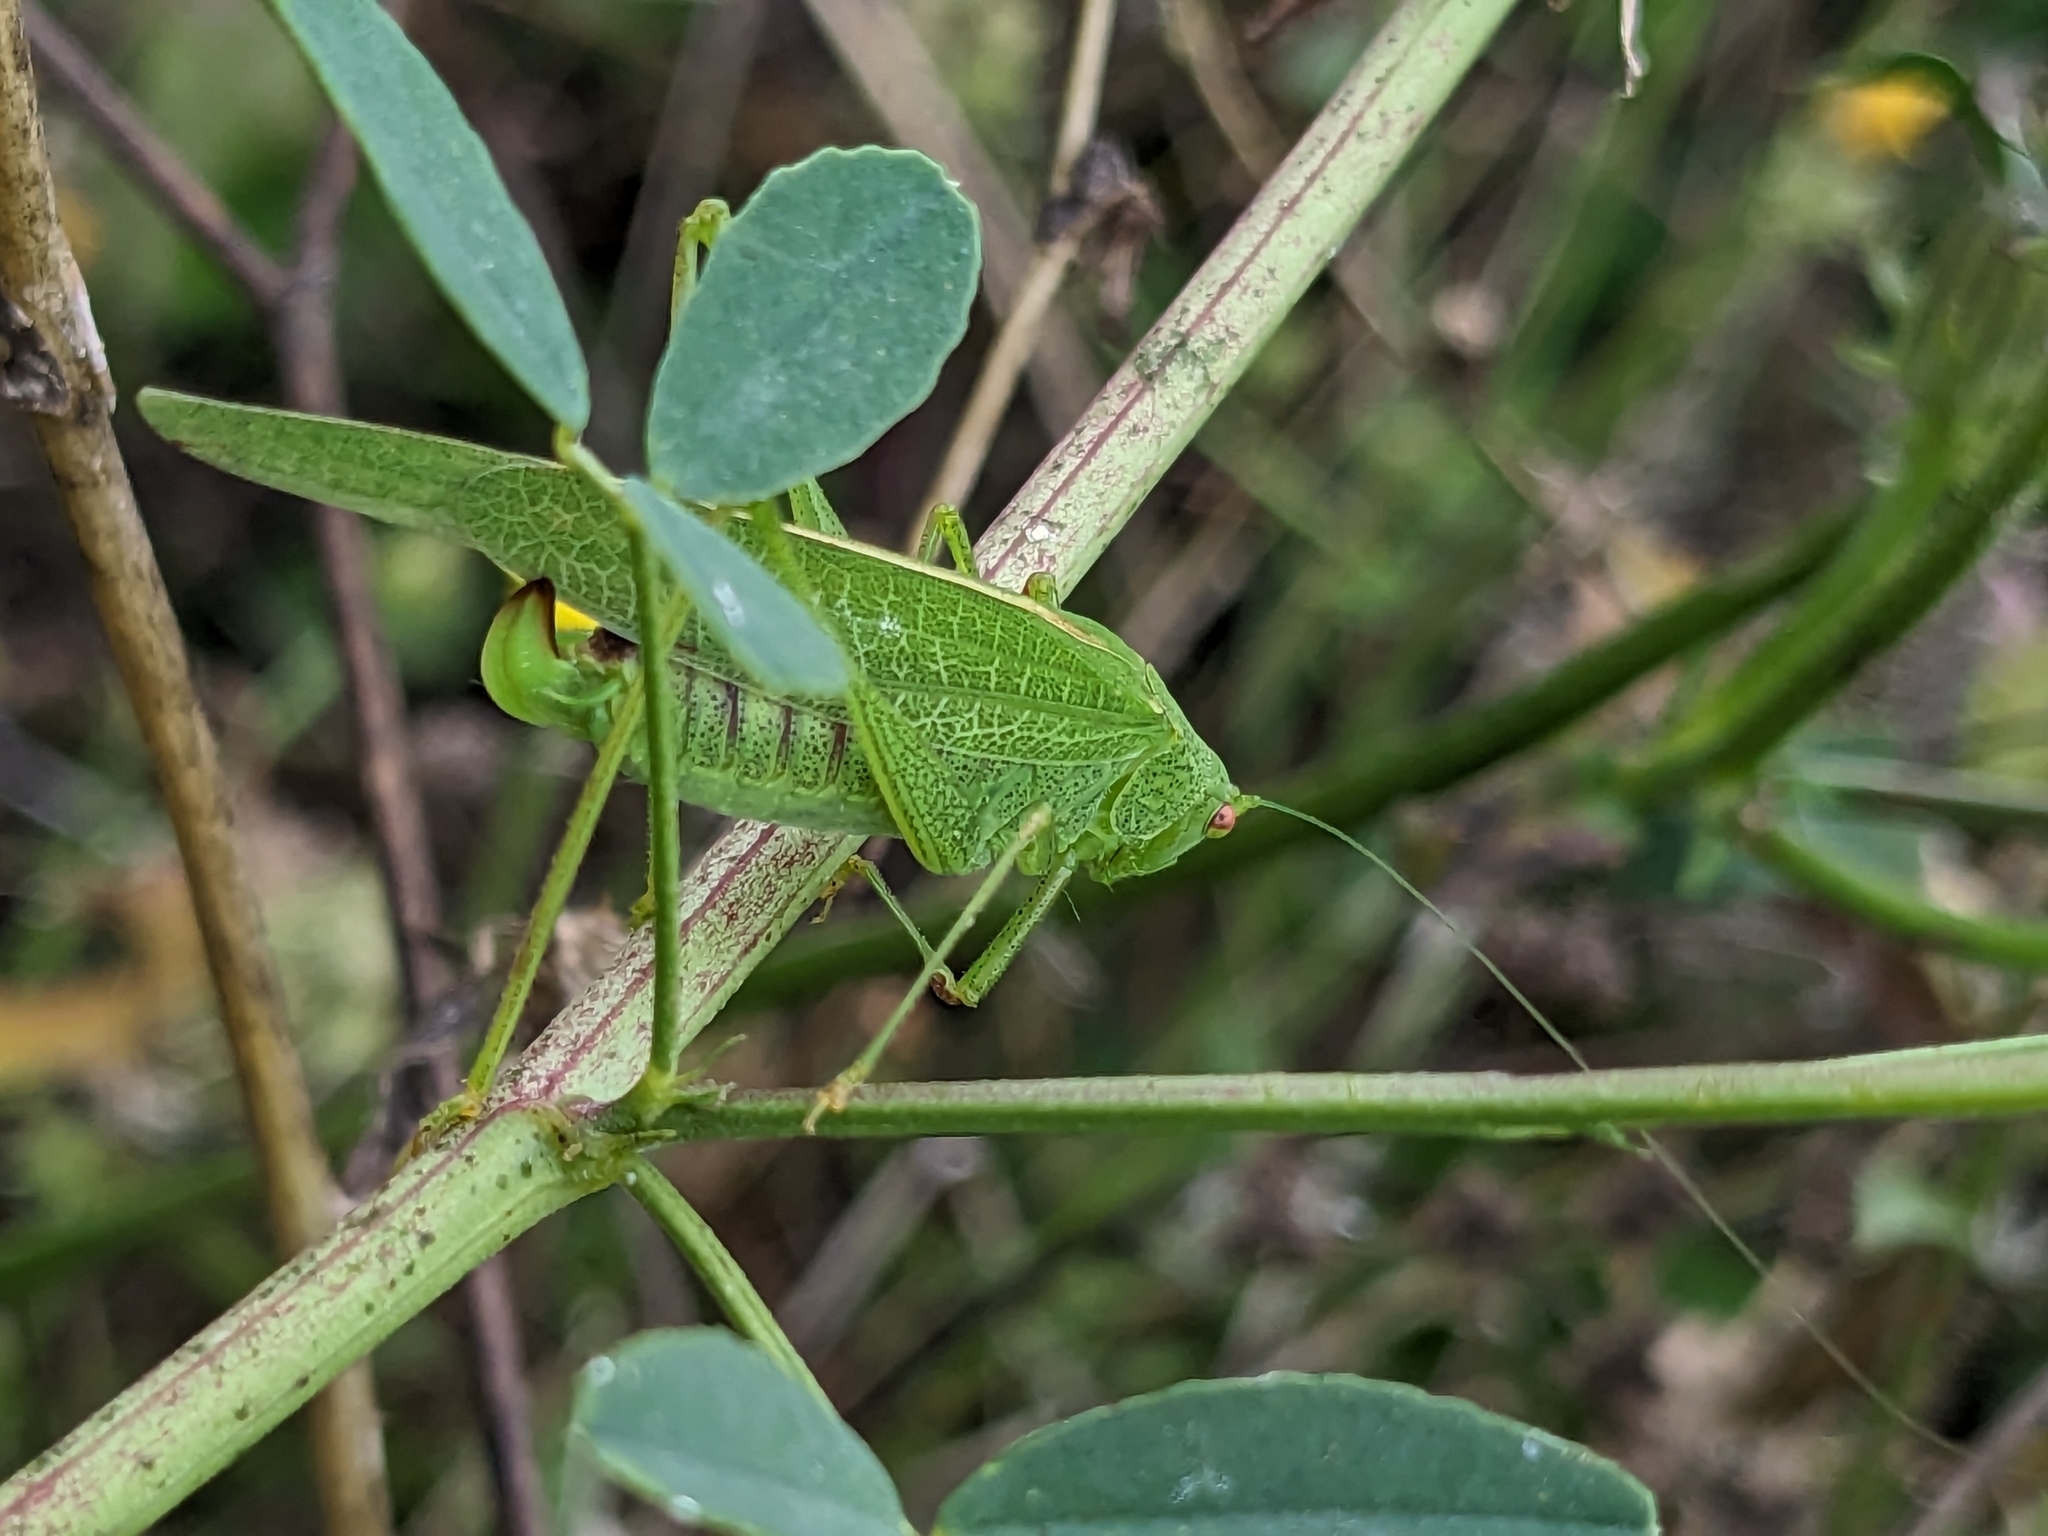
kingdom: Animalia
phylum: Arthropoda
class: Insecta
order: Orthoptera
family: Tettigoniidae
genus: Phaneroptera
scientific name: Phaneroptera nana
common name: Southern sickle bush-cricket
